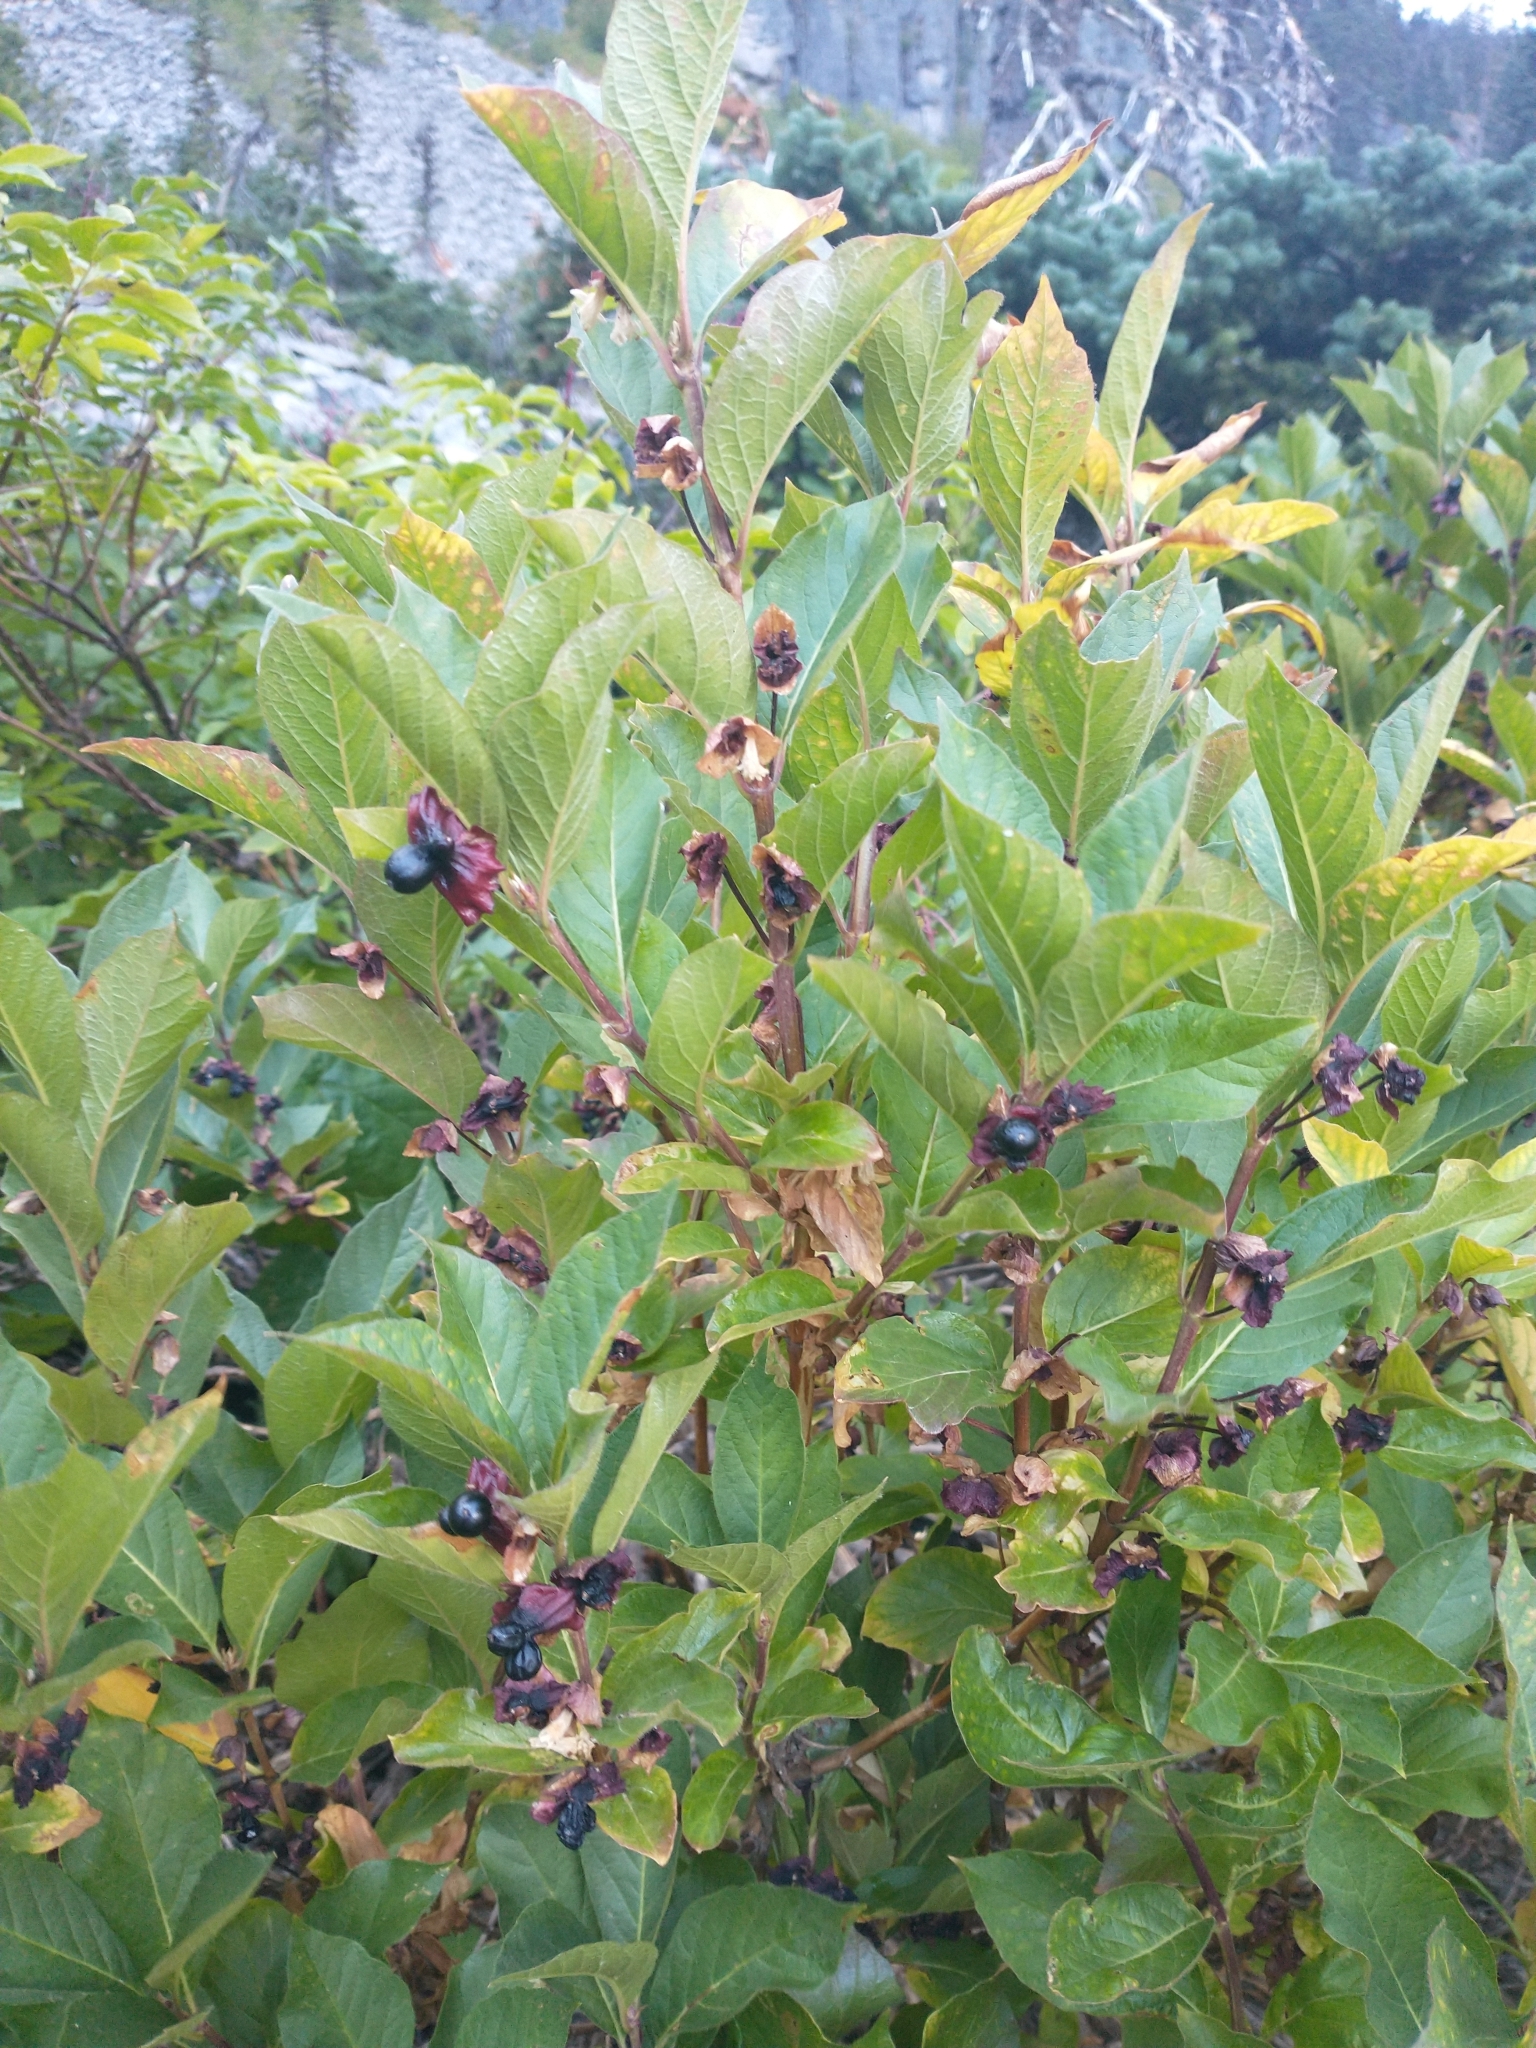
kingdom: Plantae
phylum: Tracheophyta
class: Magnoliopsida
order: Dipsacales
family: Caprifoliaceae
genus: Lonicera
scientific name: Lonicera involucrata
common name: Californian honeysuckle
